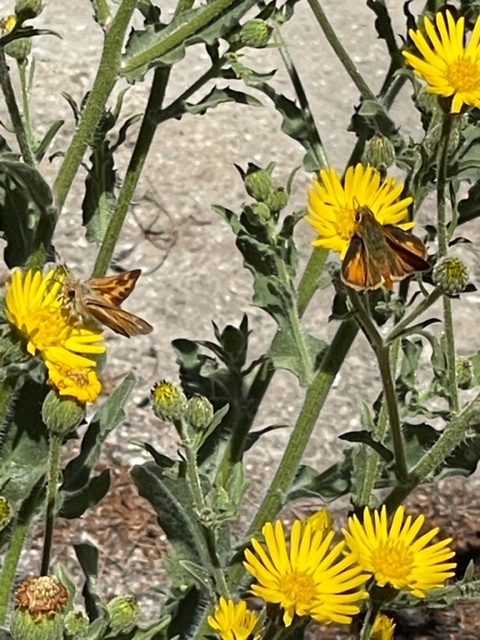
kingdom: Plantae
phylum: Tracheophyta
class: Magnoliopsida
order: Asterales
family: Asteraceae
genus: Heterotheca
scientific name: Heterotheca grandiflora
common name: Telegraphweed
